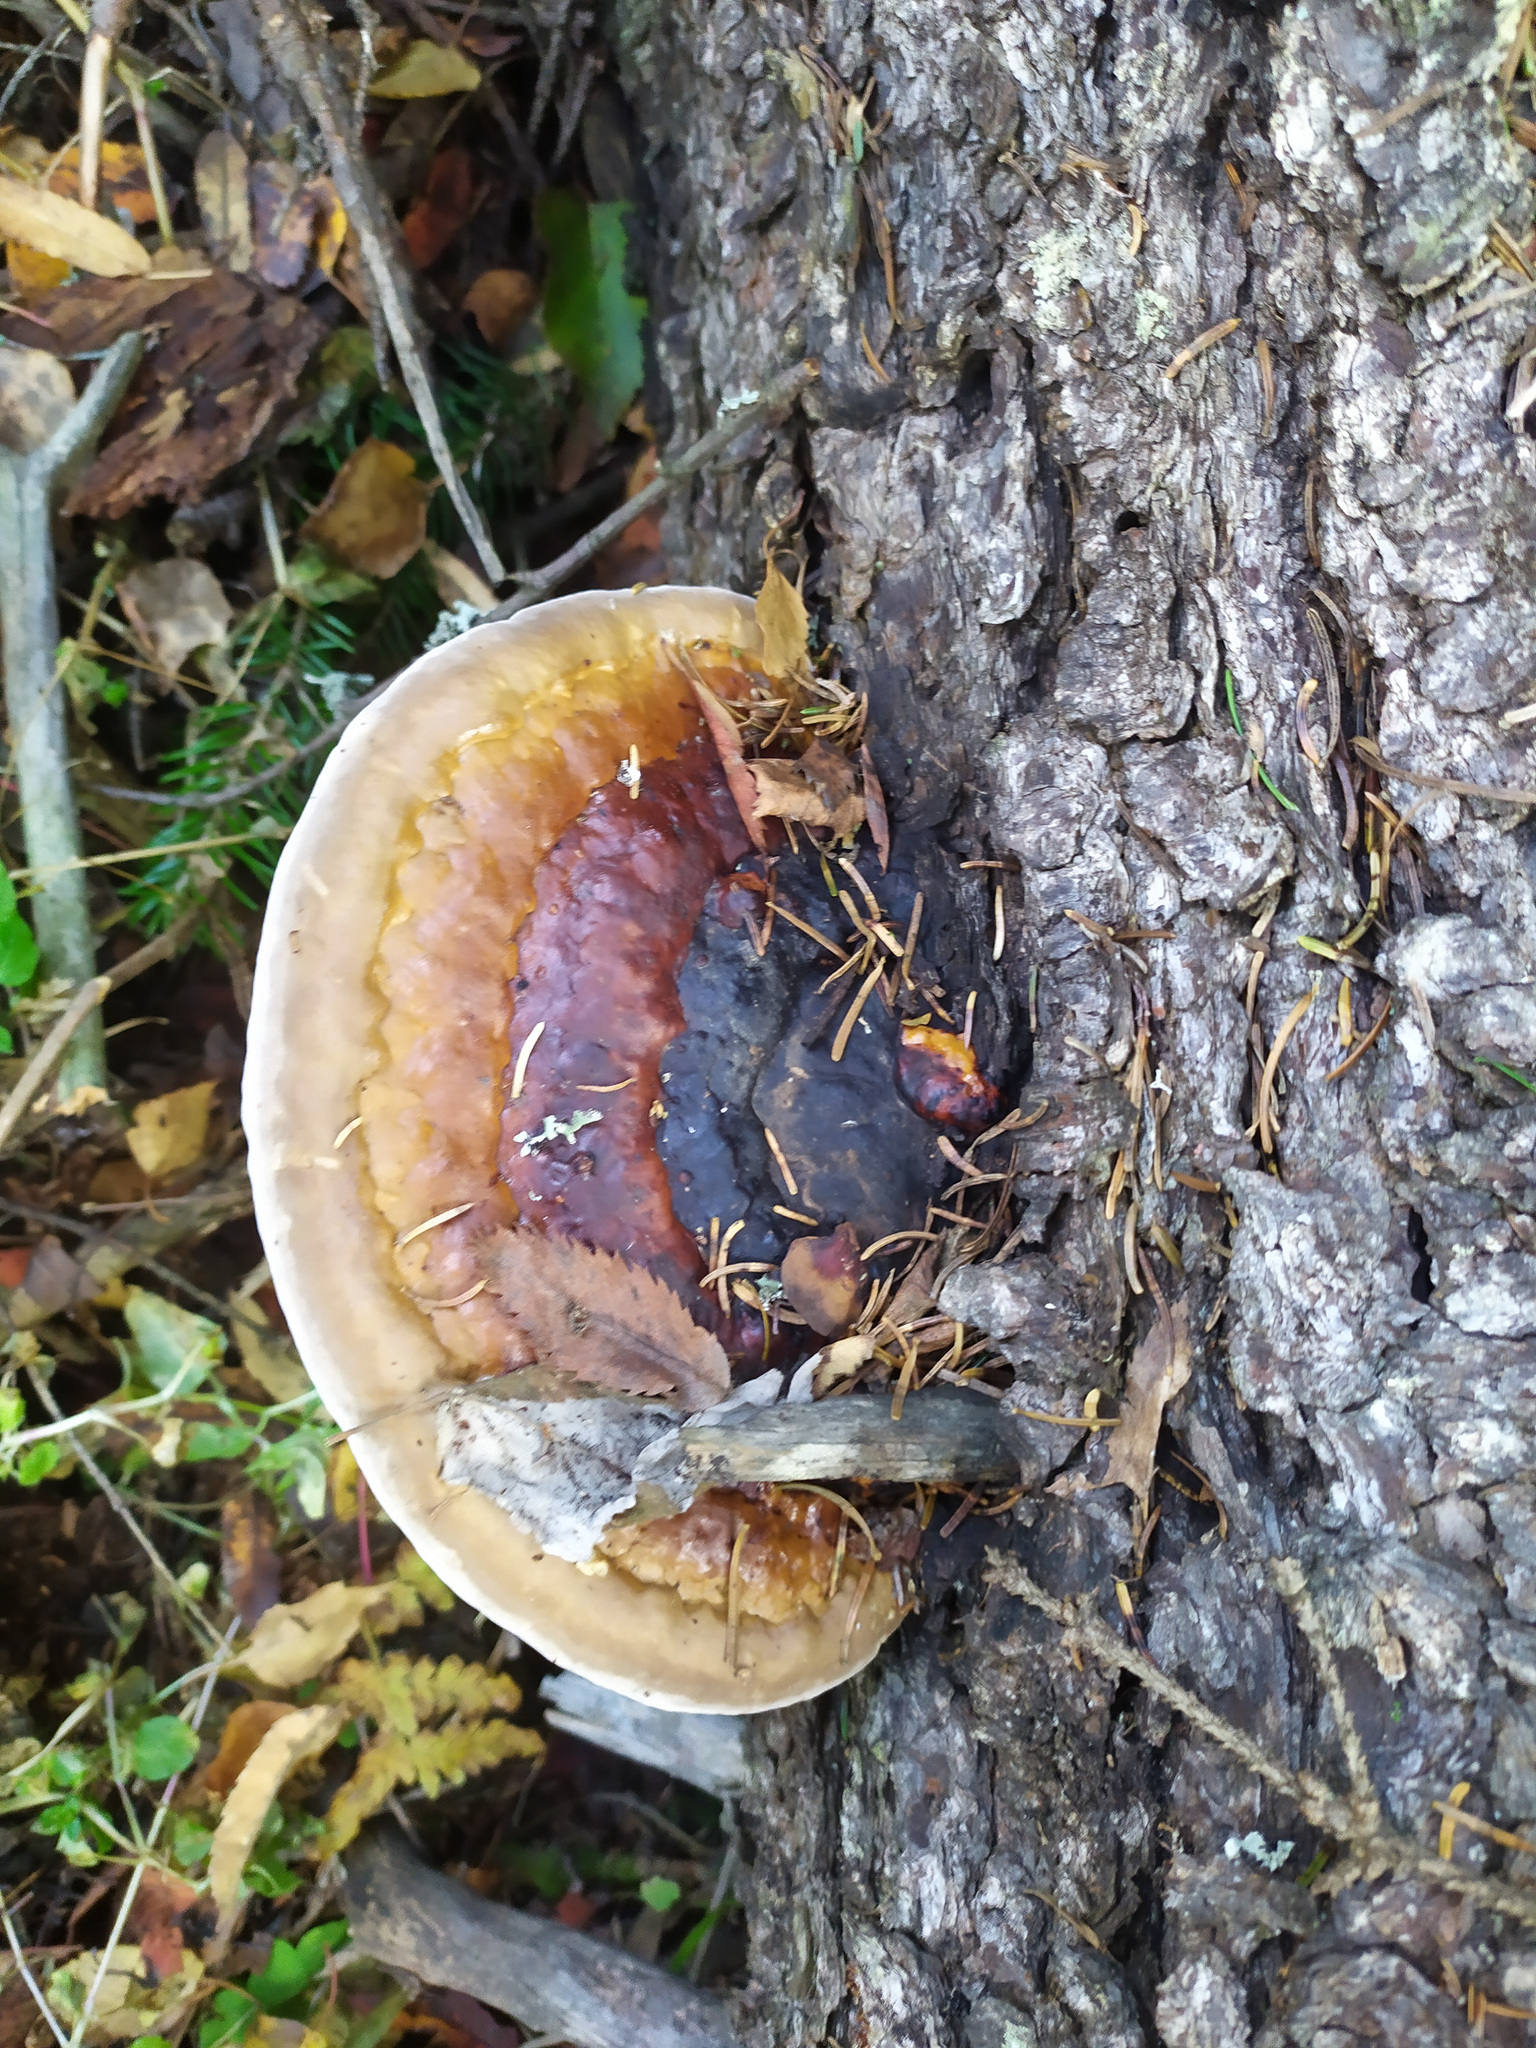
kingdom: Fungi
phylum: Basidiomycota
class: Agaricomycetes
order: Polyporales
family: Fomitopsidaceae
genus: Fomitopsis
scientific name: Fomitopsis pinicola
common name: Red-belted bracket
